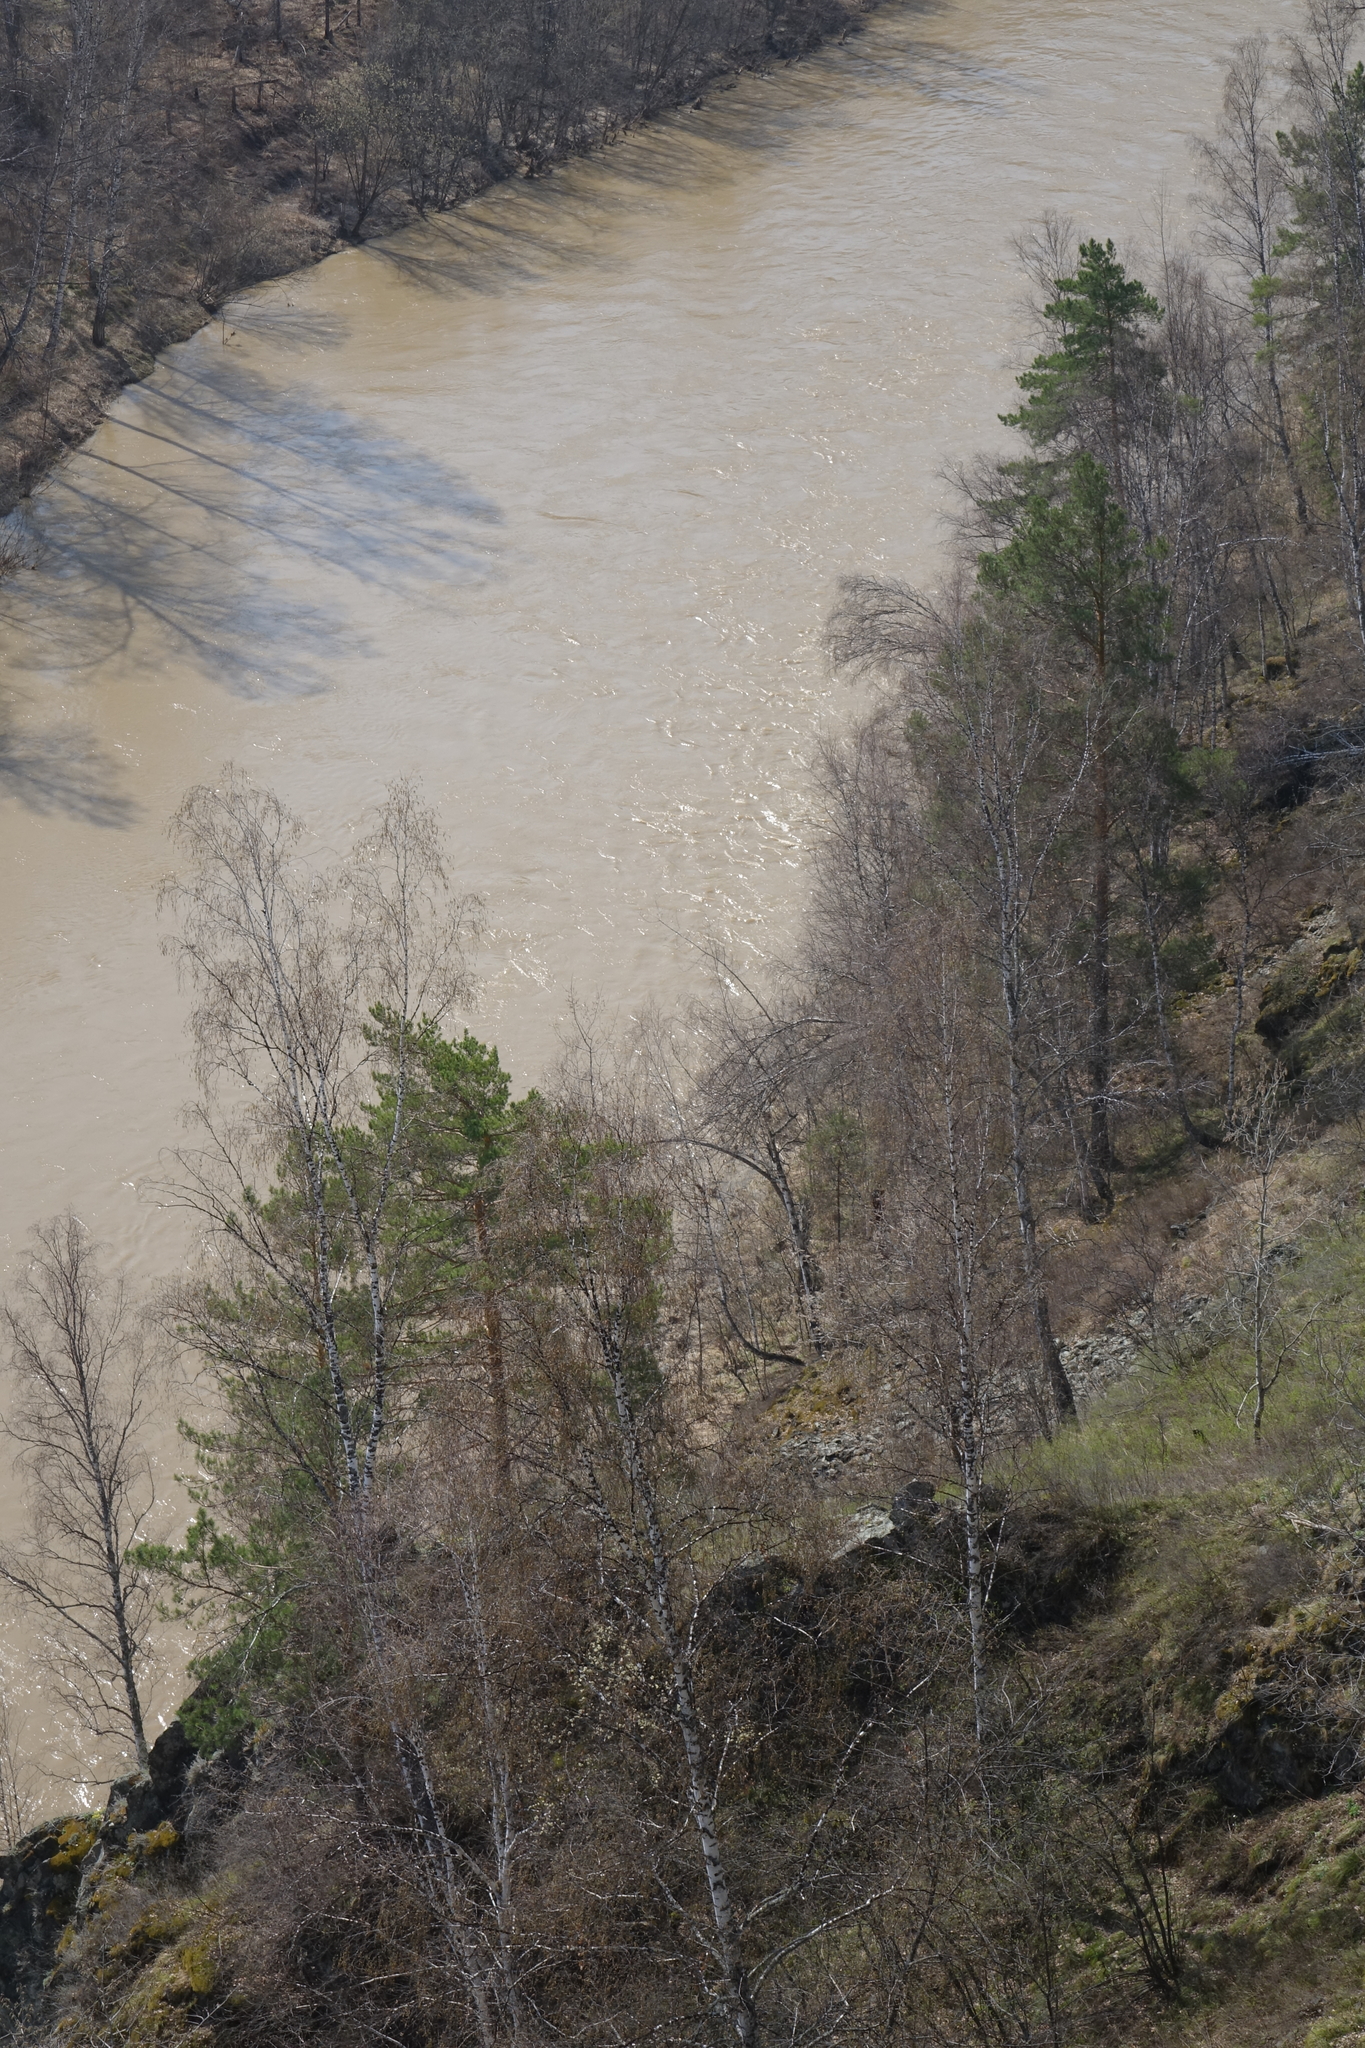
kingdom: Plantae
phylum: Tracheophyta
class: Pinopsida
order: Pinales
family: Pinaceae
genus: Pinus
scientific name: Pinus sylvestris
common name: Scots pine
